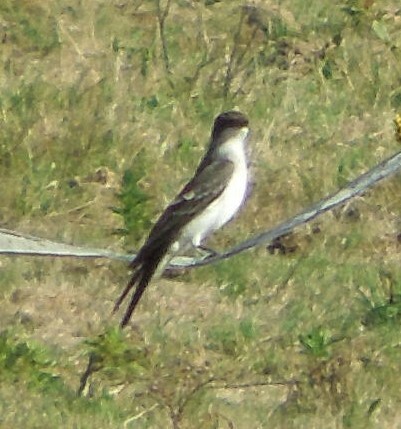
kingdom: Animalia
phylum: Chordata
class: Aves
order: Passeriformes
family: Tyrannidae
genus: Tyrannus
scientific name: Tyrannus tyrannus
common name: Eastern kingbird
